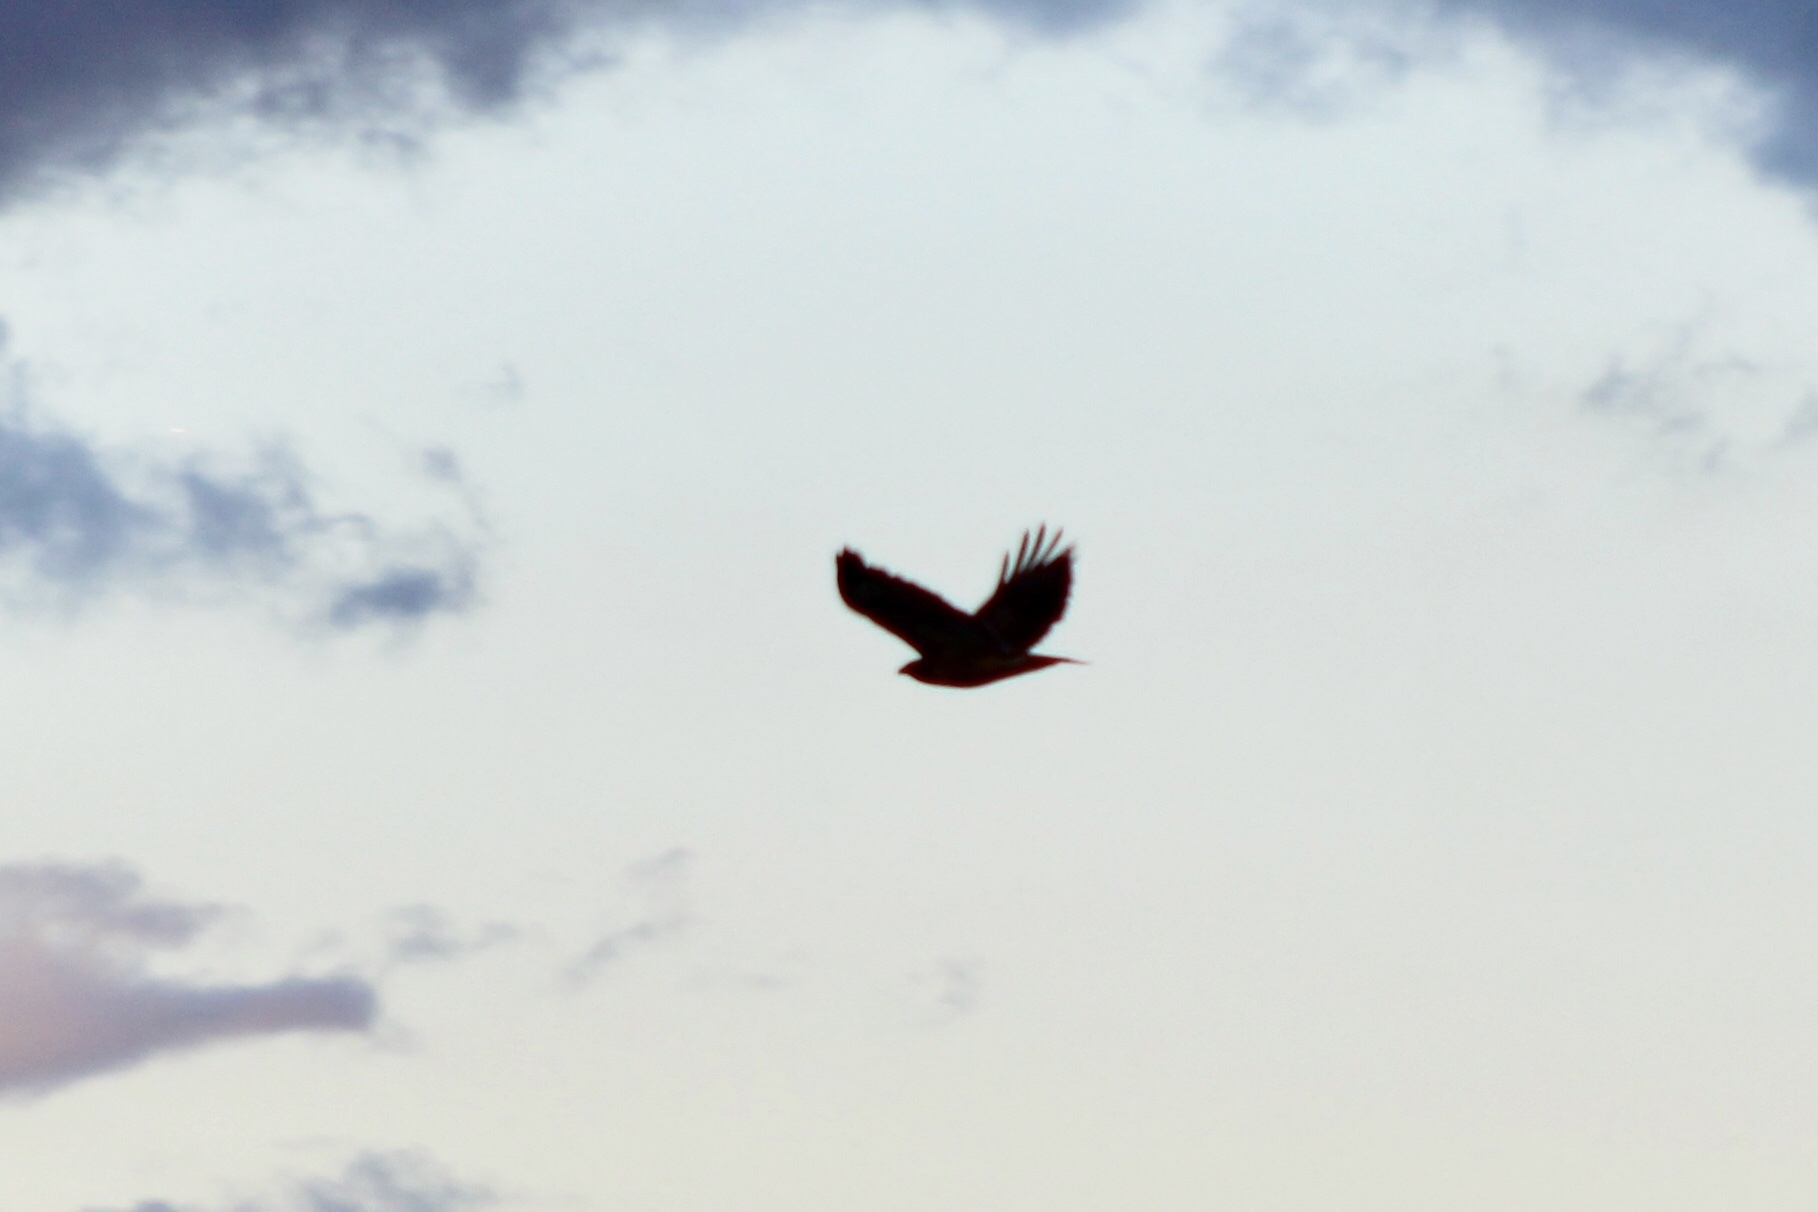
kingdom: Animalia
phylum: Chordata
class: Aves
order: Accipitriformes
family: Accipitridae
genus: Buteo
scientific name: Buteo jamaicensis
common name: Red-tailed hawk
